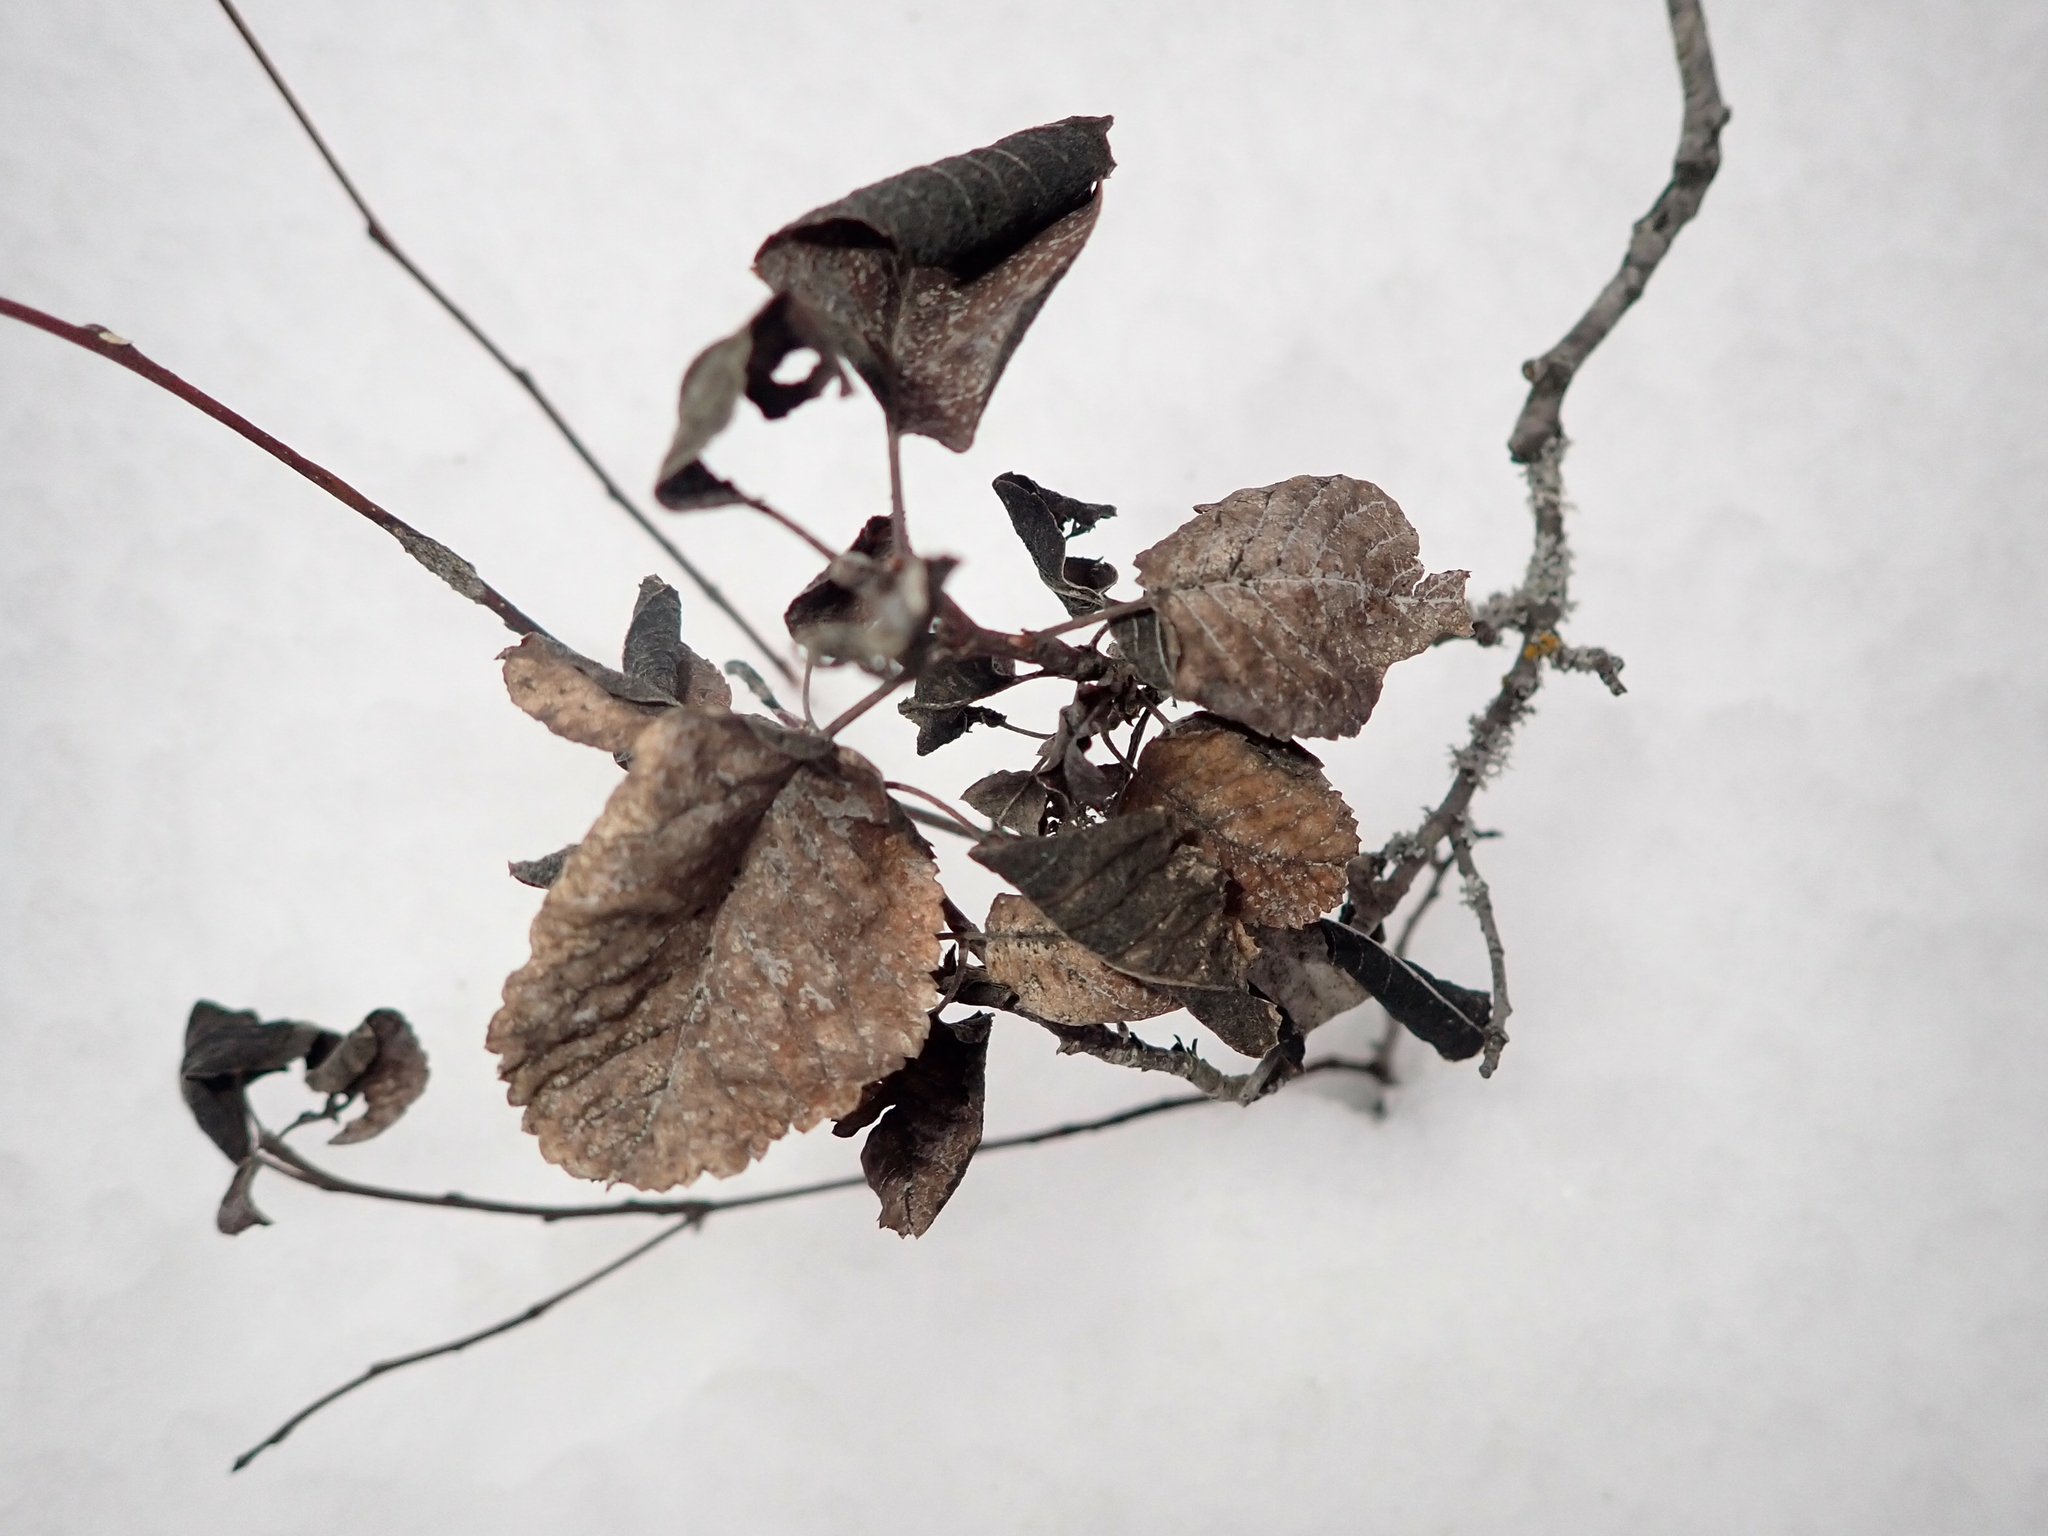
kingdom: Fungi
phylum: Ascomycota
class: Dothideomycetes
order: Venturiales
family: Venturiaceae
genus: Apiosporina
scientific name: Apiosporina collinsii
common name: Black leaf
